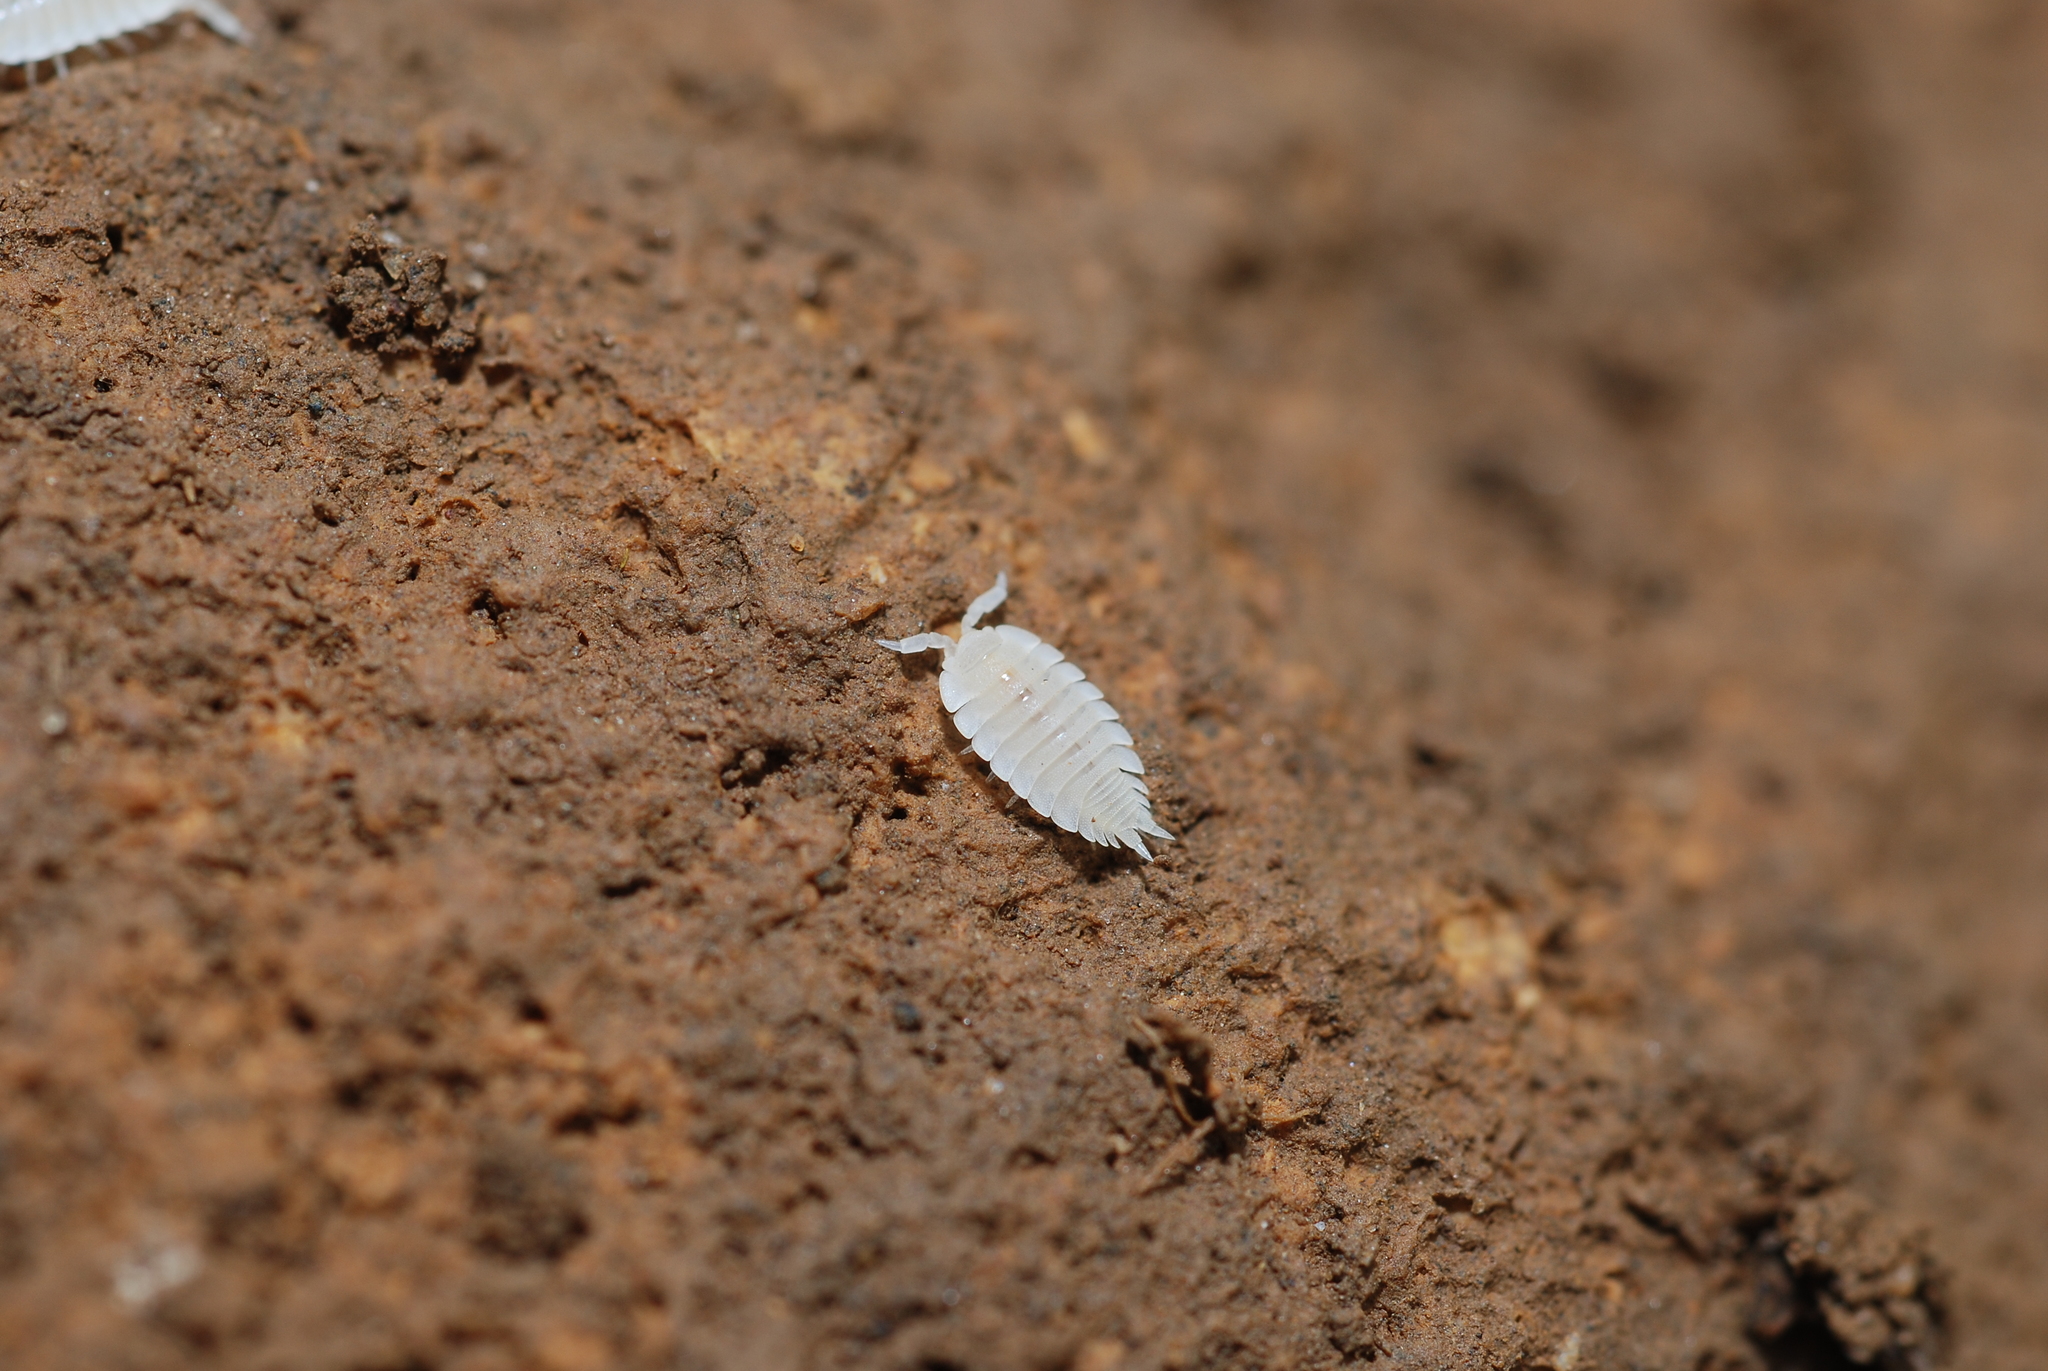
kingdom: Animalia
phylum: Arthropoda
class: Malacostraca
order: Isopoda
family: Platyarthridae
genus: Platyarthrus
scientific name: Platyarthrus hoffmannseggii
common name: Ant woodlouse
